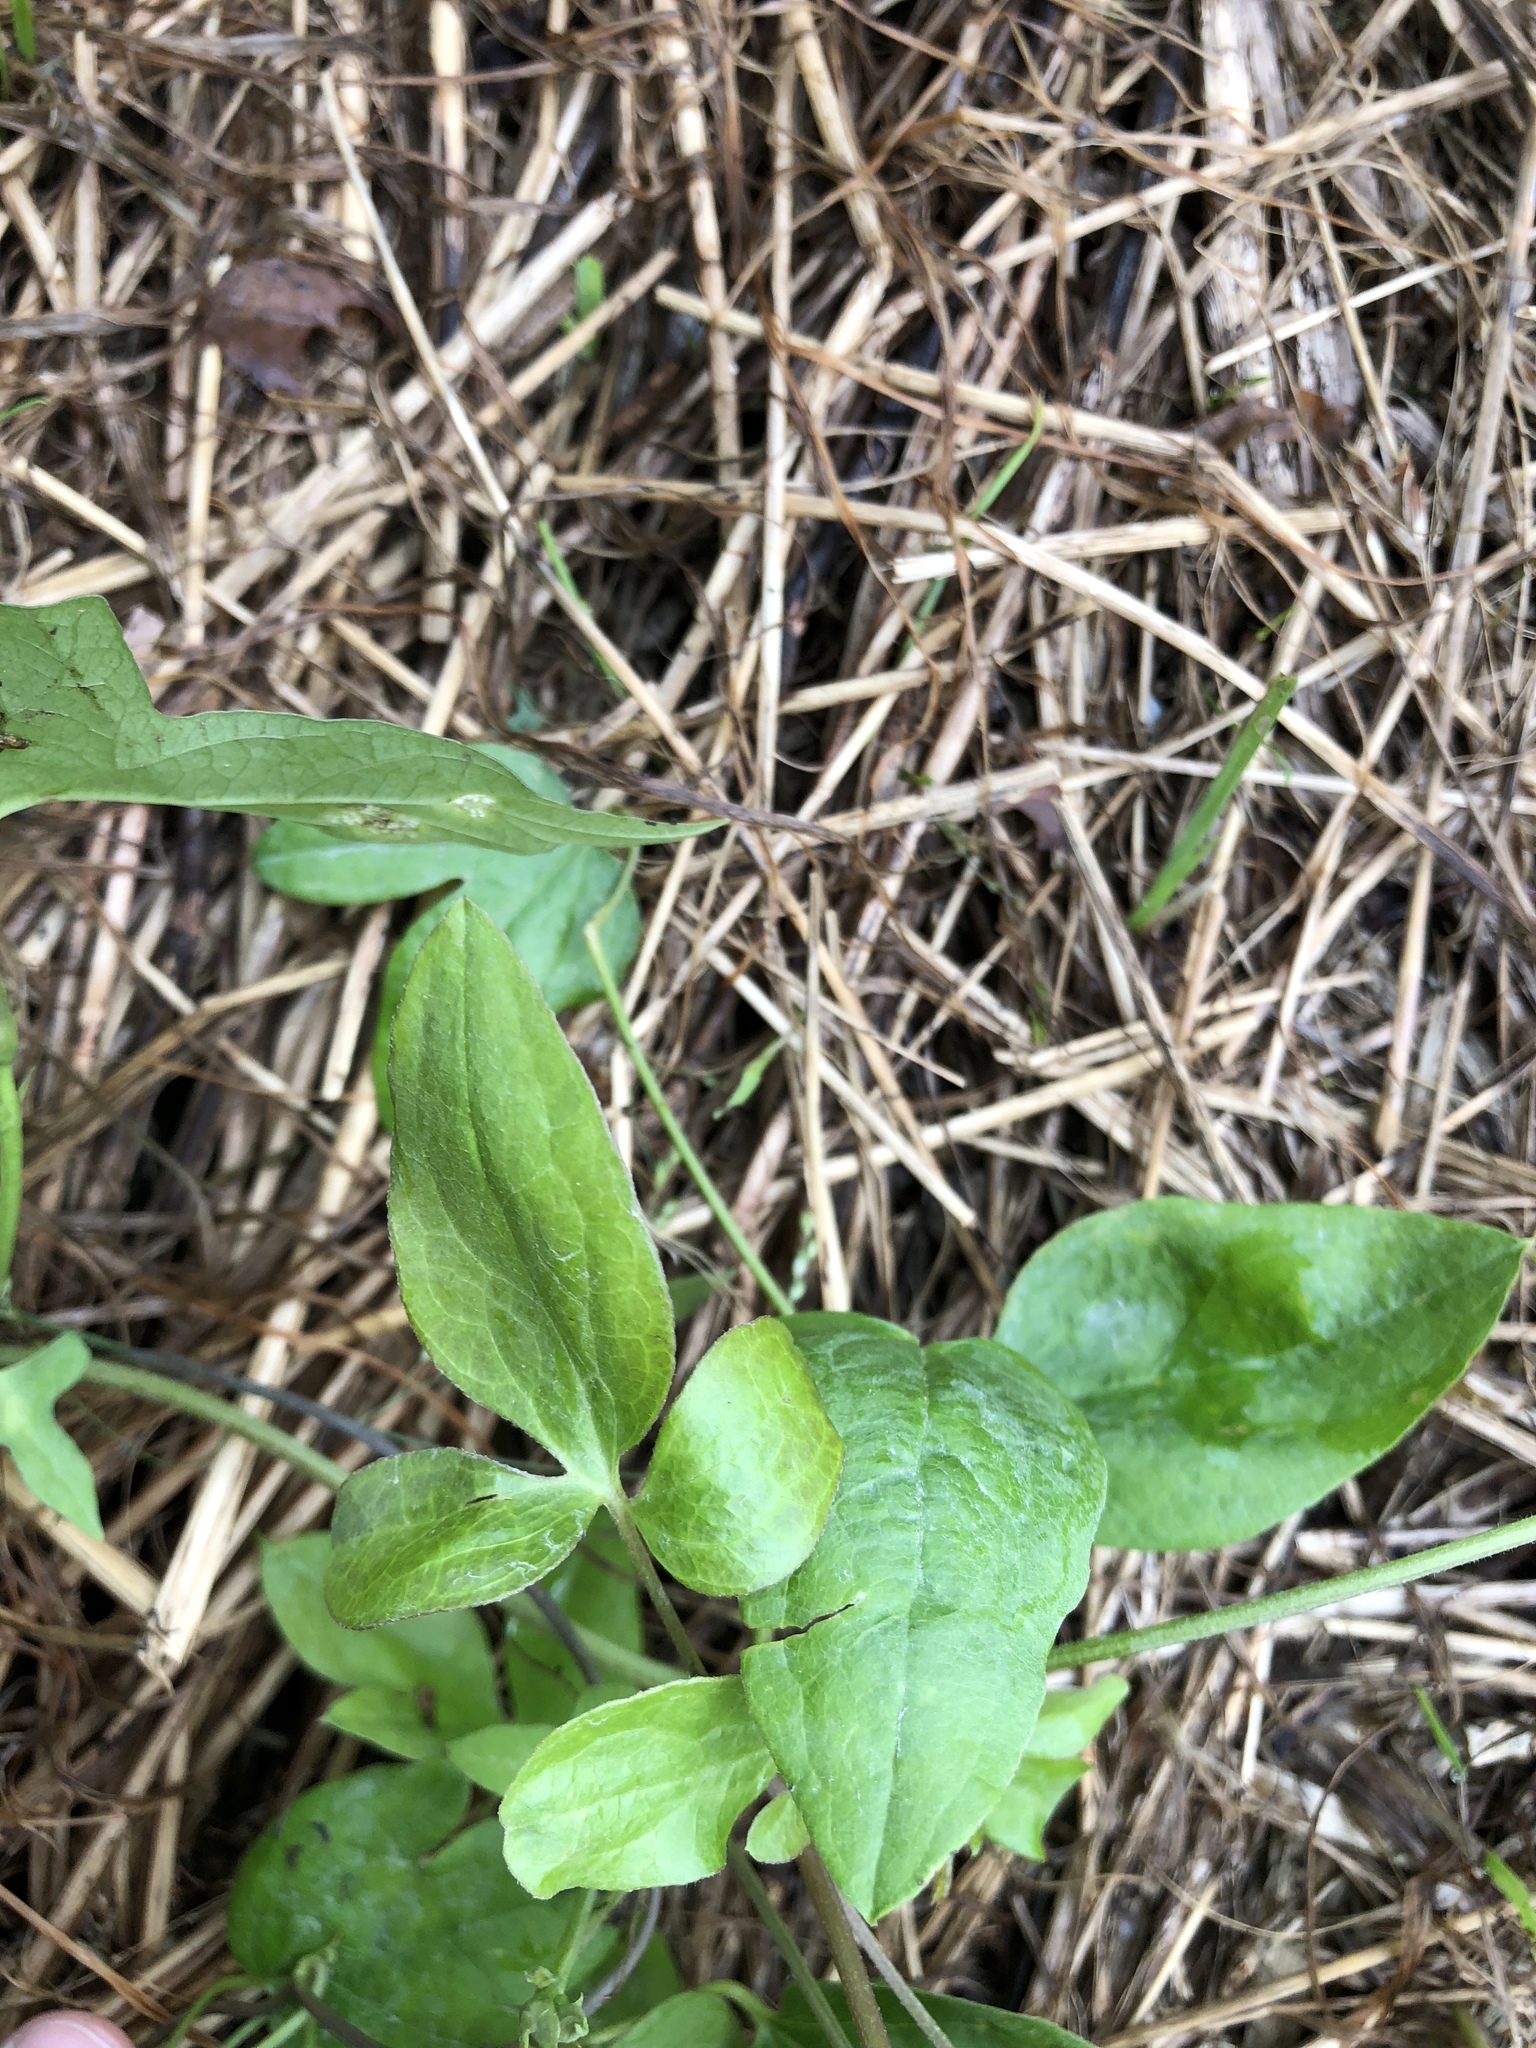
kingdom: Plantae
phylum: Tracheophyta
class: Magnoliopsida
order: Ranunculales
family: Ranunculaceae
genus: Clematis
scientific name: Clematis pitcheri
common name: Bellflower clematis
